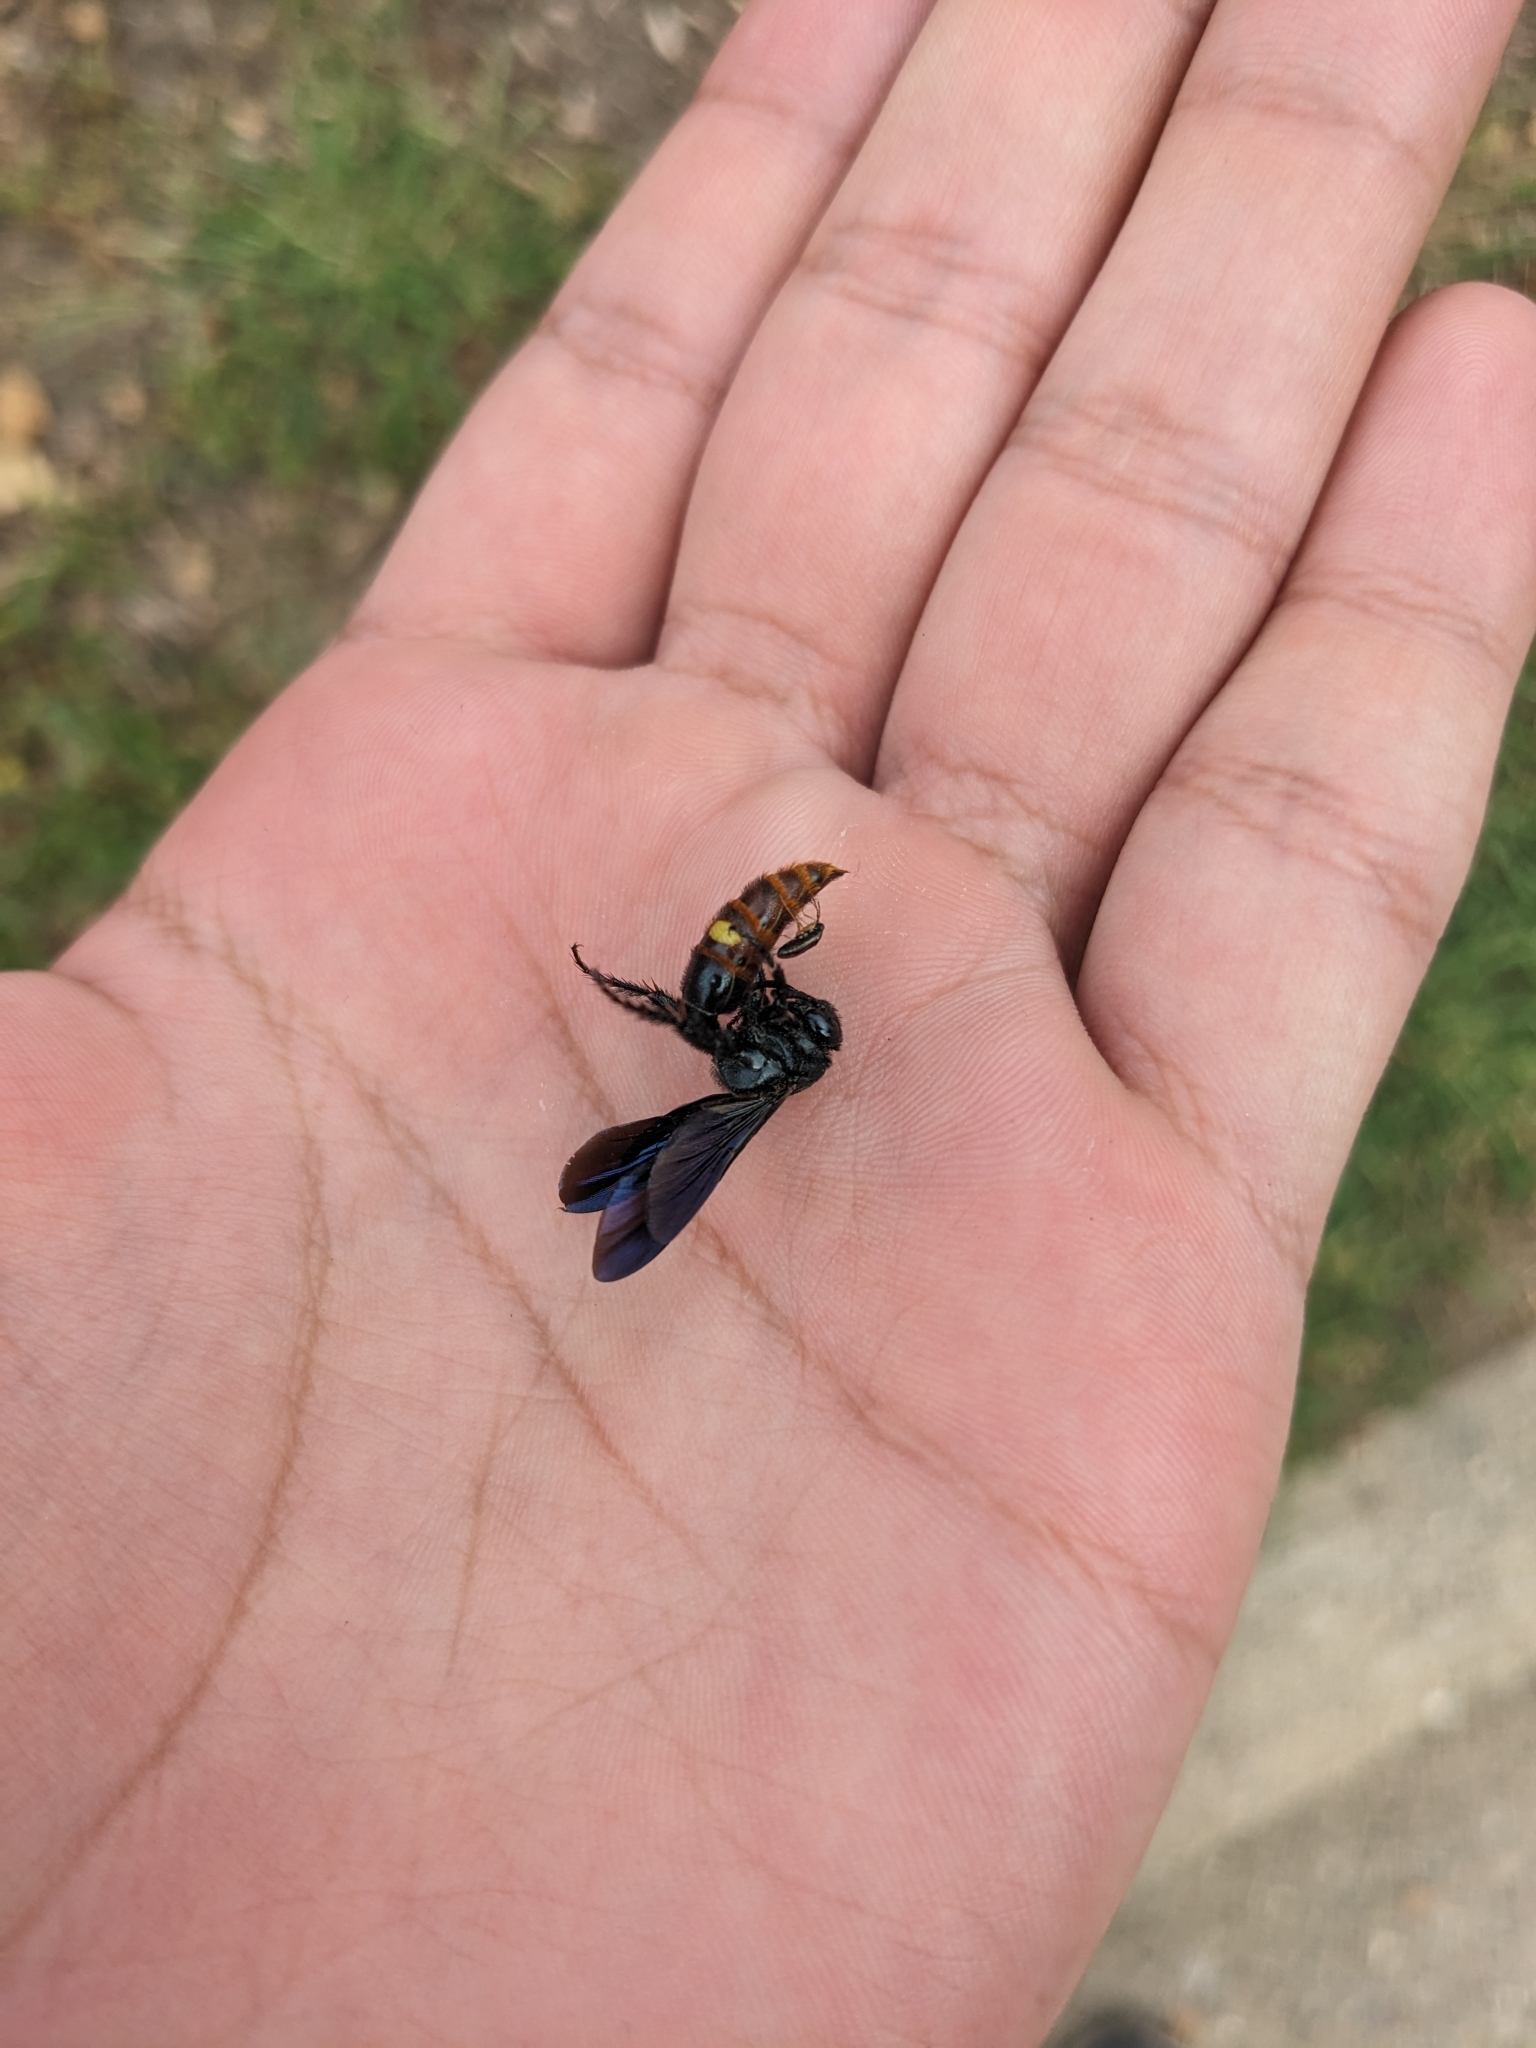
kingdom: Animalia
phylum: Arthropoda
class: Insecta
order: Hymenoptera
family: Scoliidae
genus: Scolia
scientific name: Scolia dubia
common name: Blue-winged scoliid wasp
